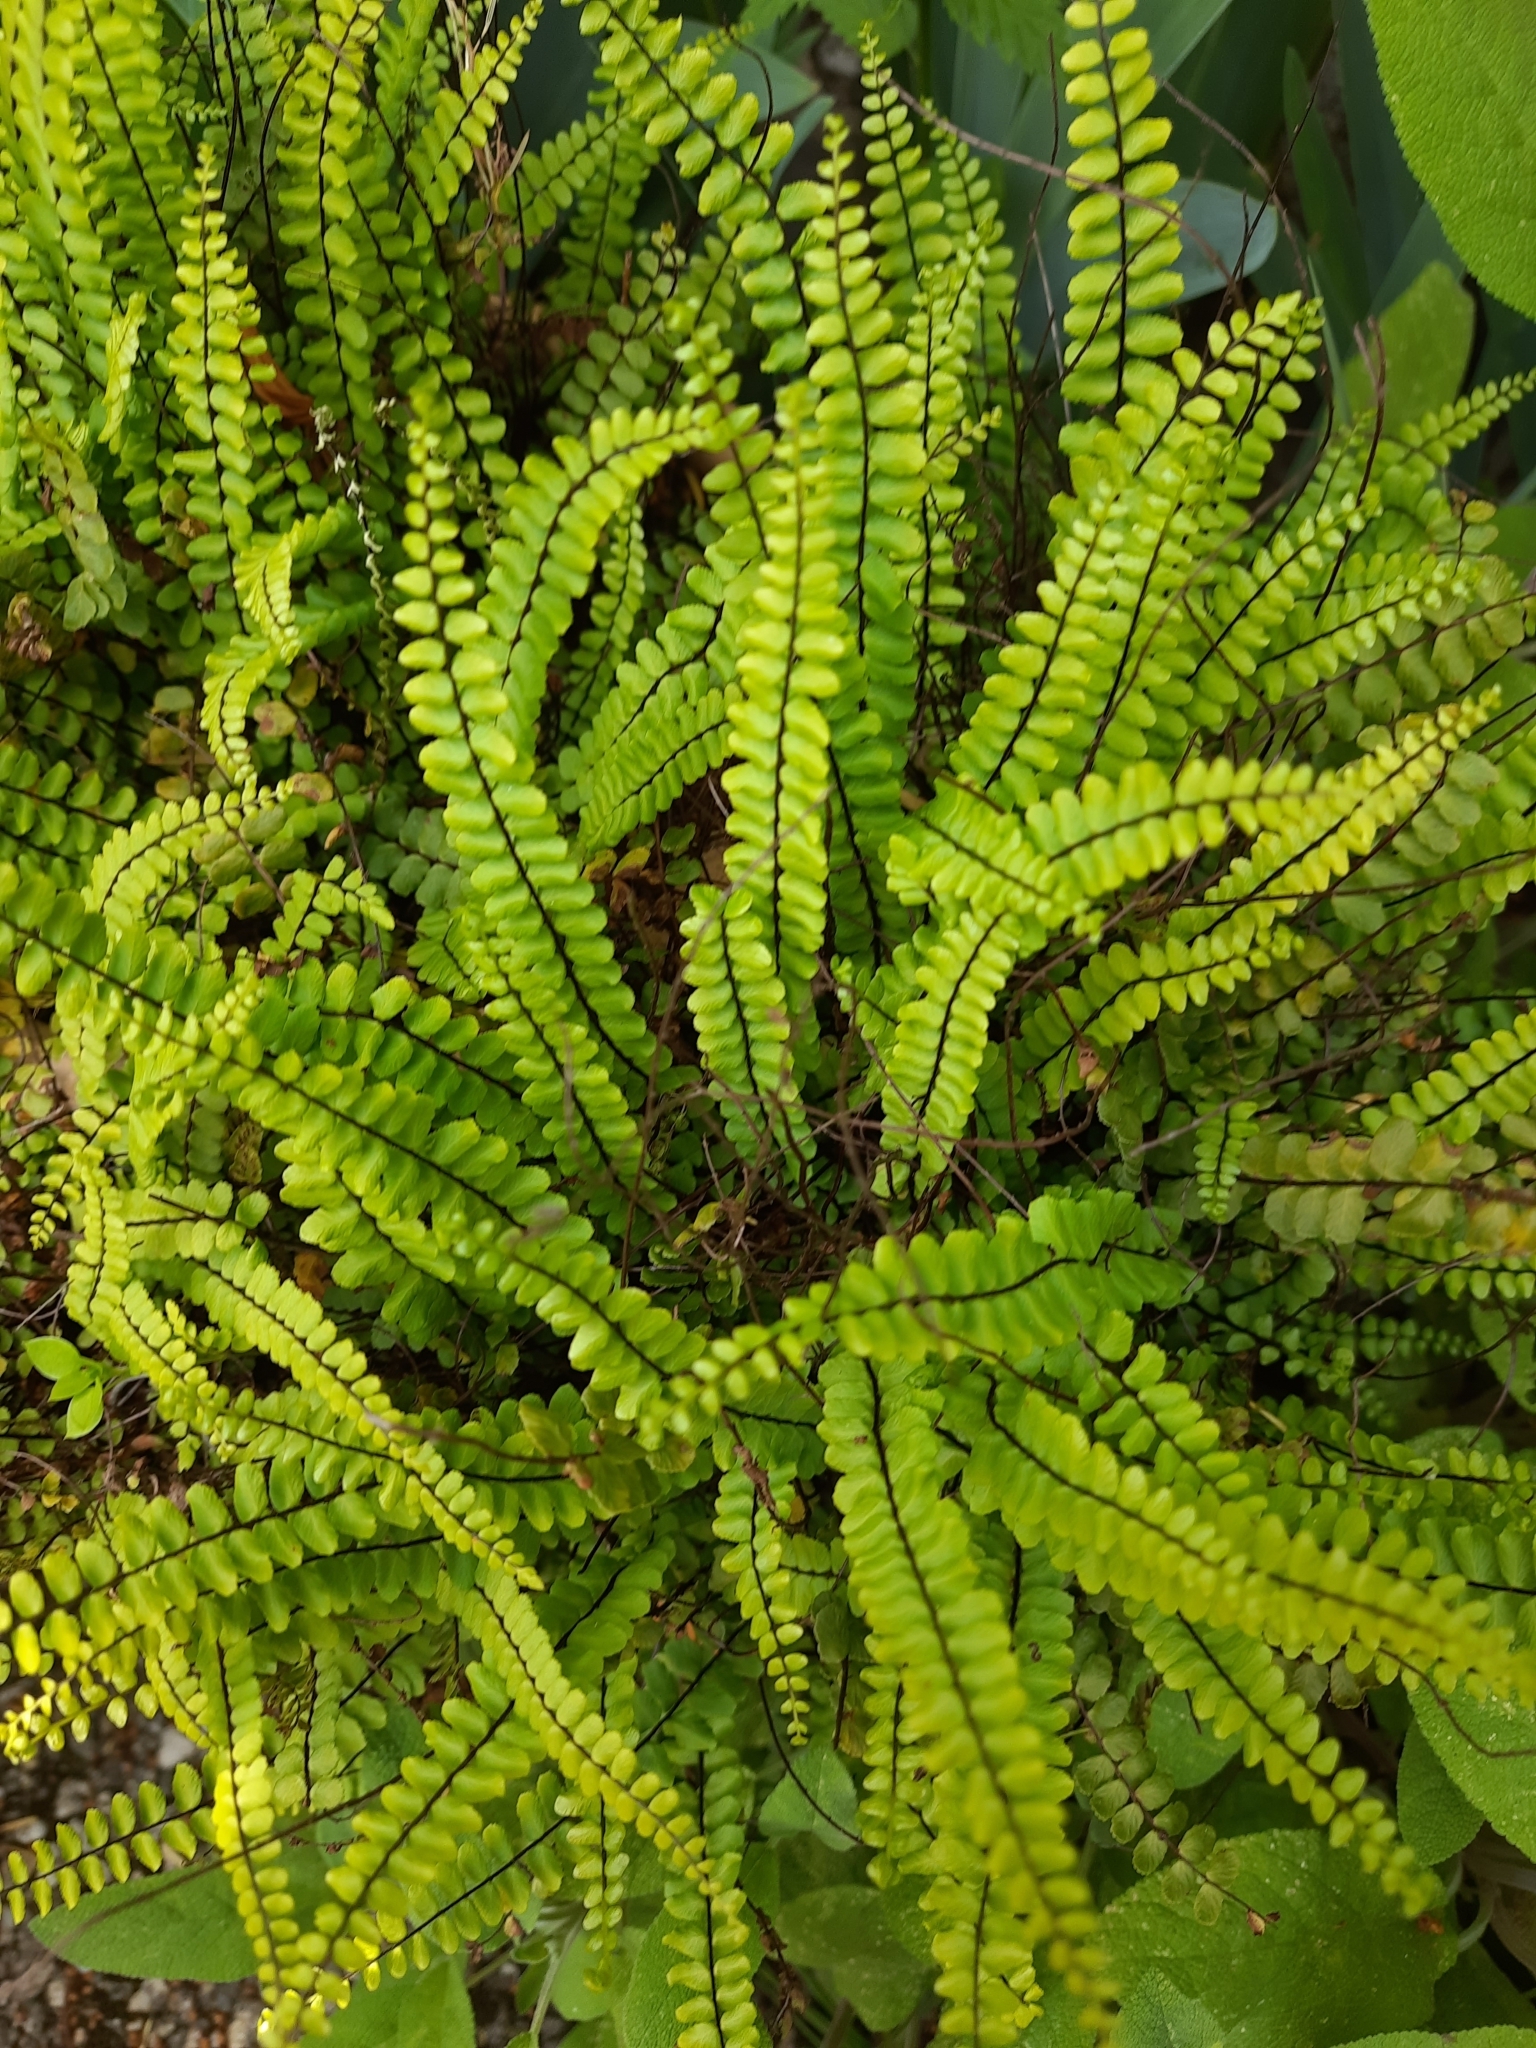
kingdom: Plantae
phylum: Tracheophyta
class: Polypodiopsida
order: Polypodiales
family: Aspleniaceae
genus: Asplenium
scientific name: Asplenium trichomanes
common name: Maidenhair spleenwort
